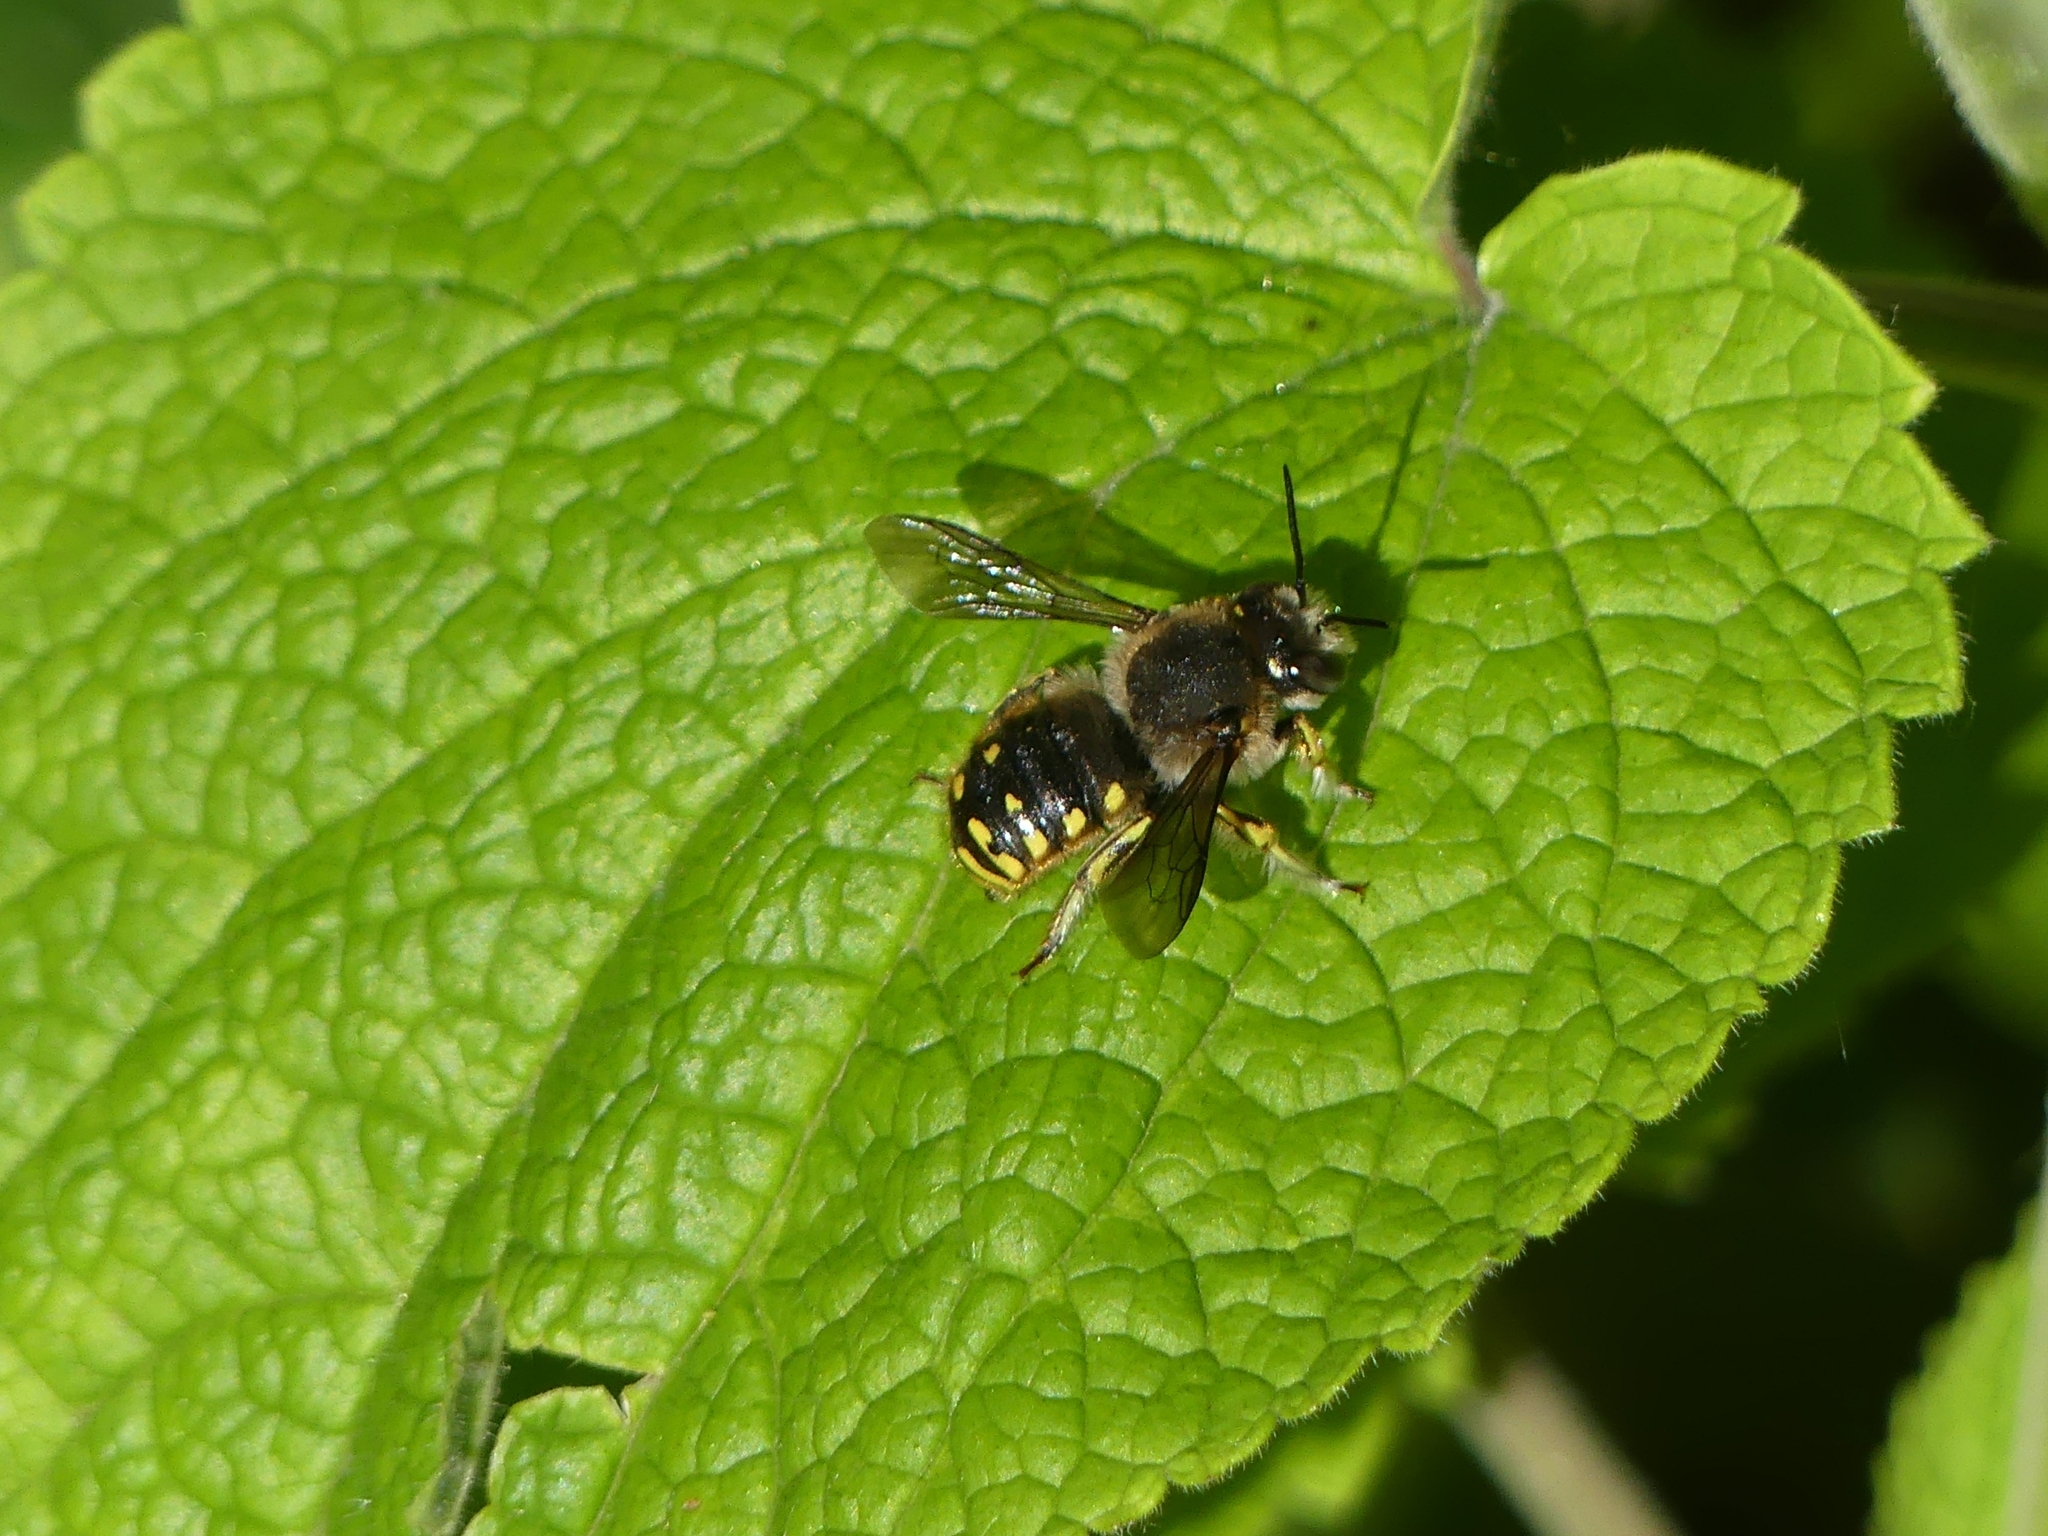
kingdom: Animalia
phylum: Arthropoda
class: Insecta
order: Hymenoptera
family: Megachilidae
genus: Anthidium
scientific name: Anthidium manicatum
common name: Wool carder bee
